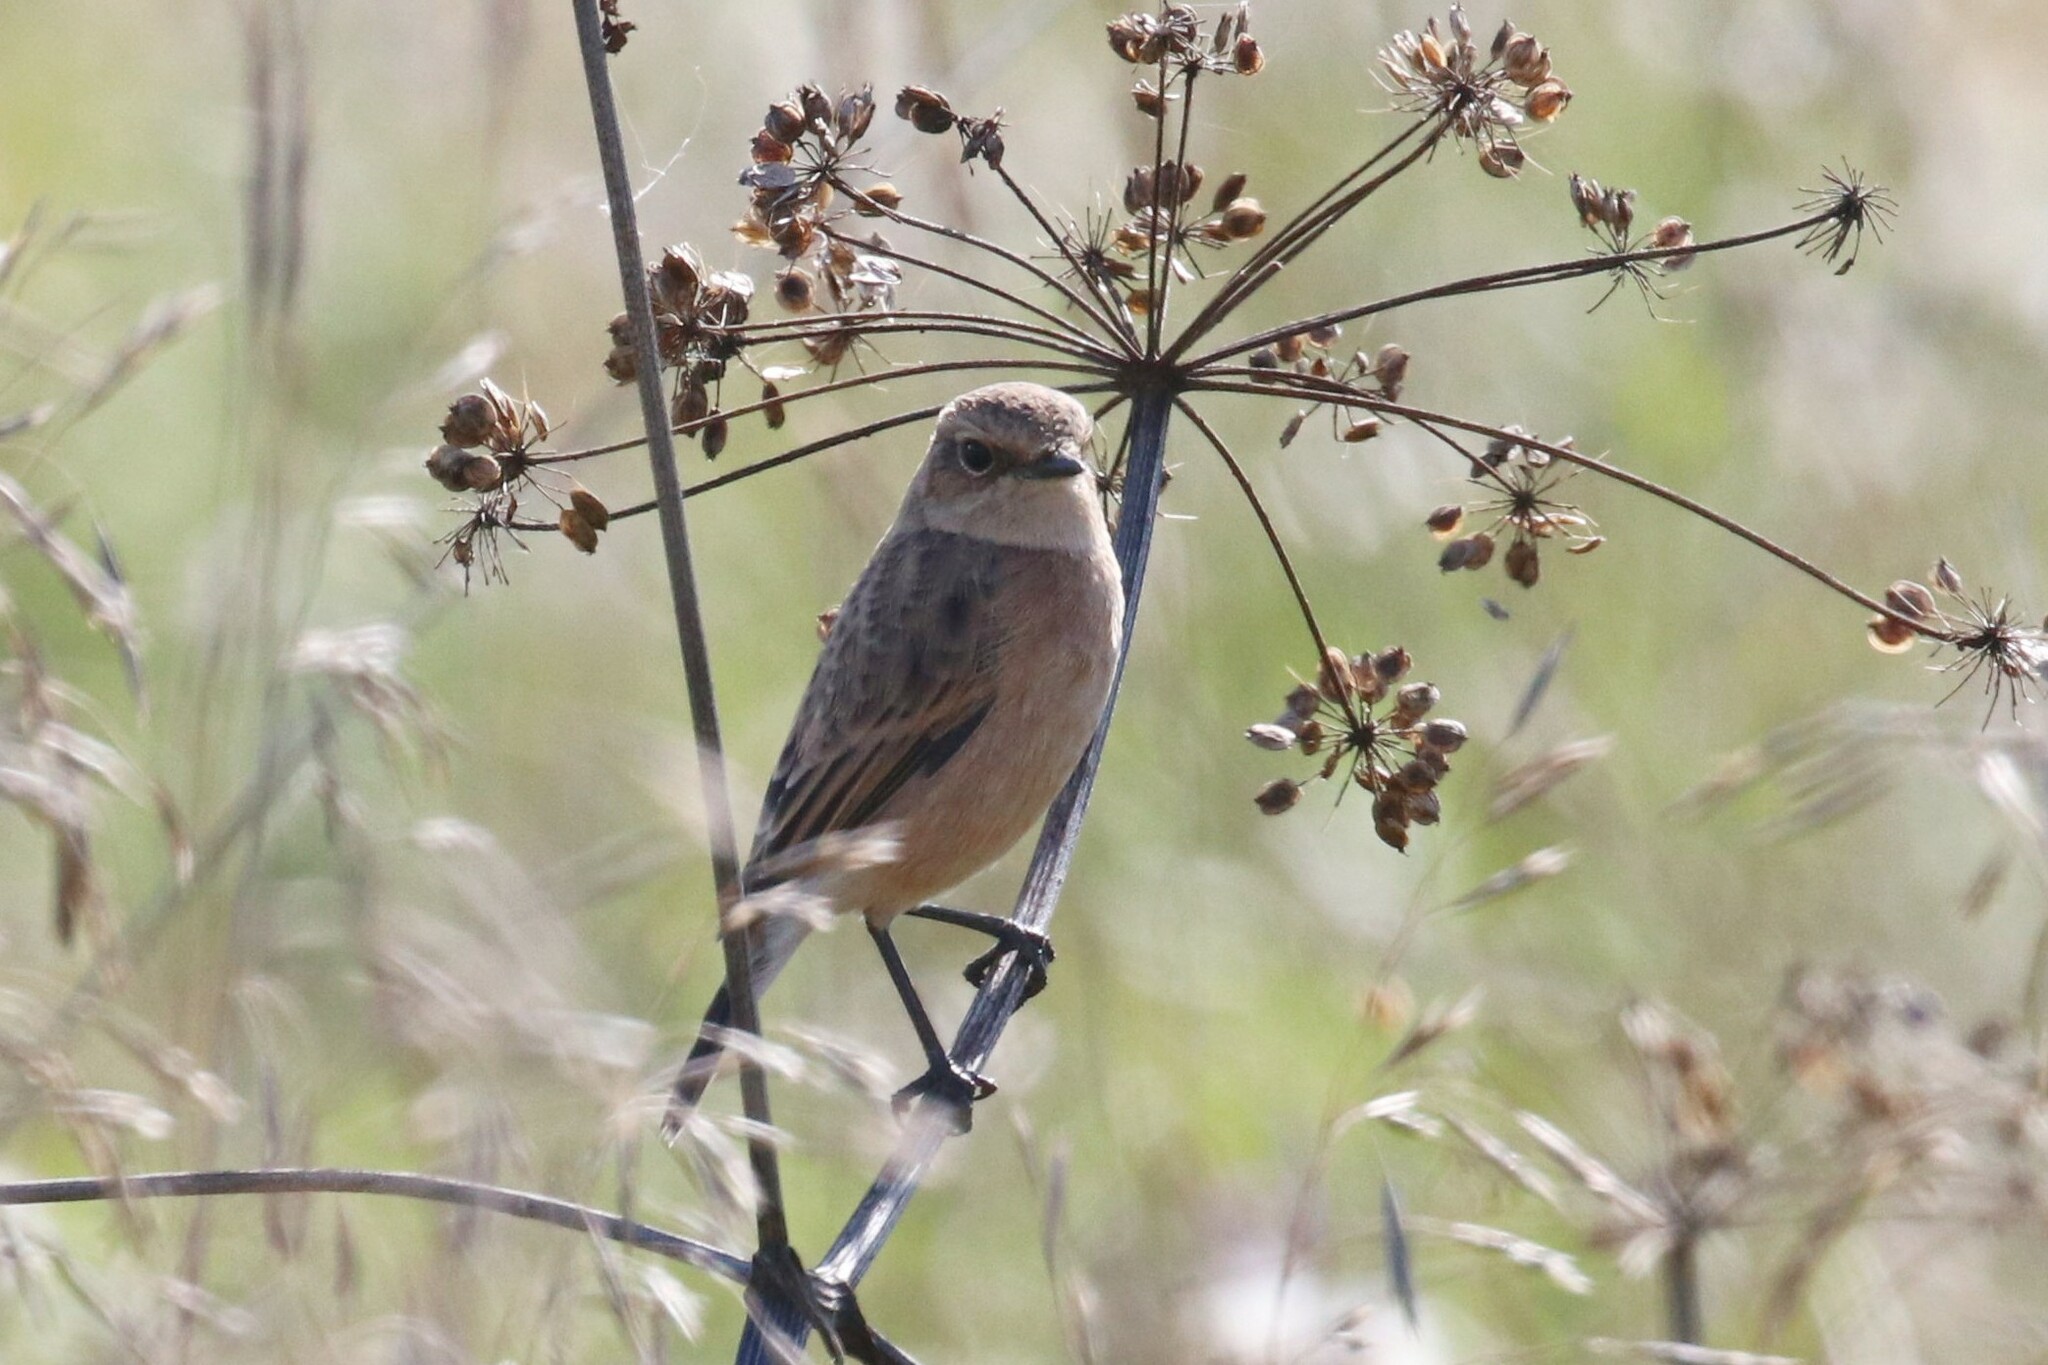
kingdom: Animalia
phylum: Chordata
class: Aves
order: Passeriformes
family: Muscicapidae
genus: Saxicola
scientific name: Saxicola maurus
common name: Siberian stonechat
